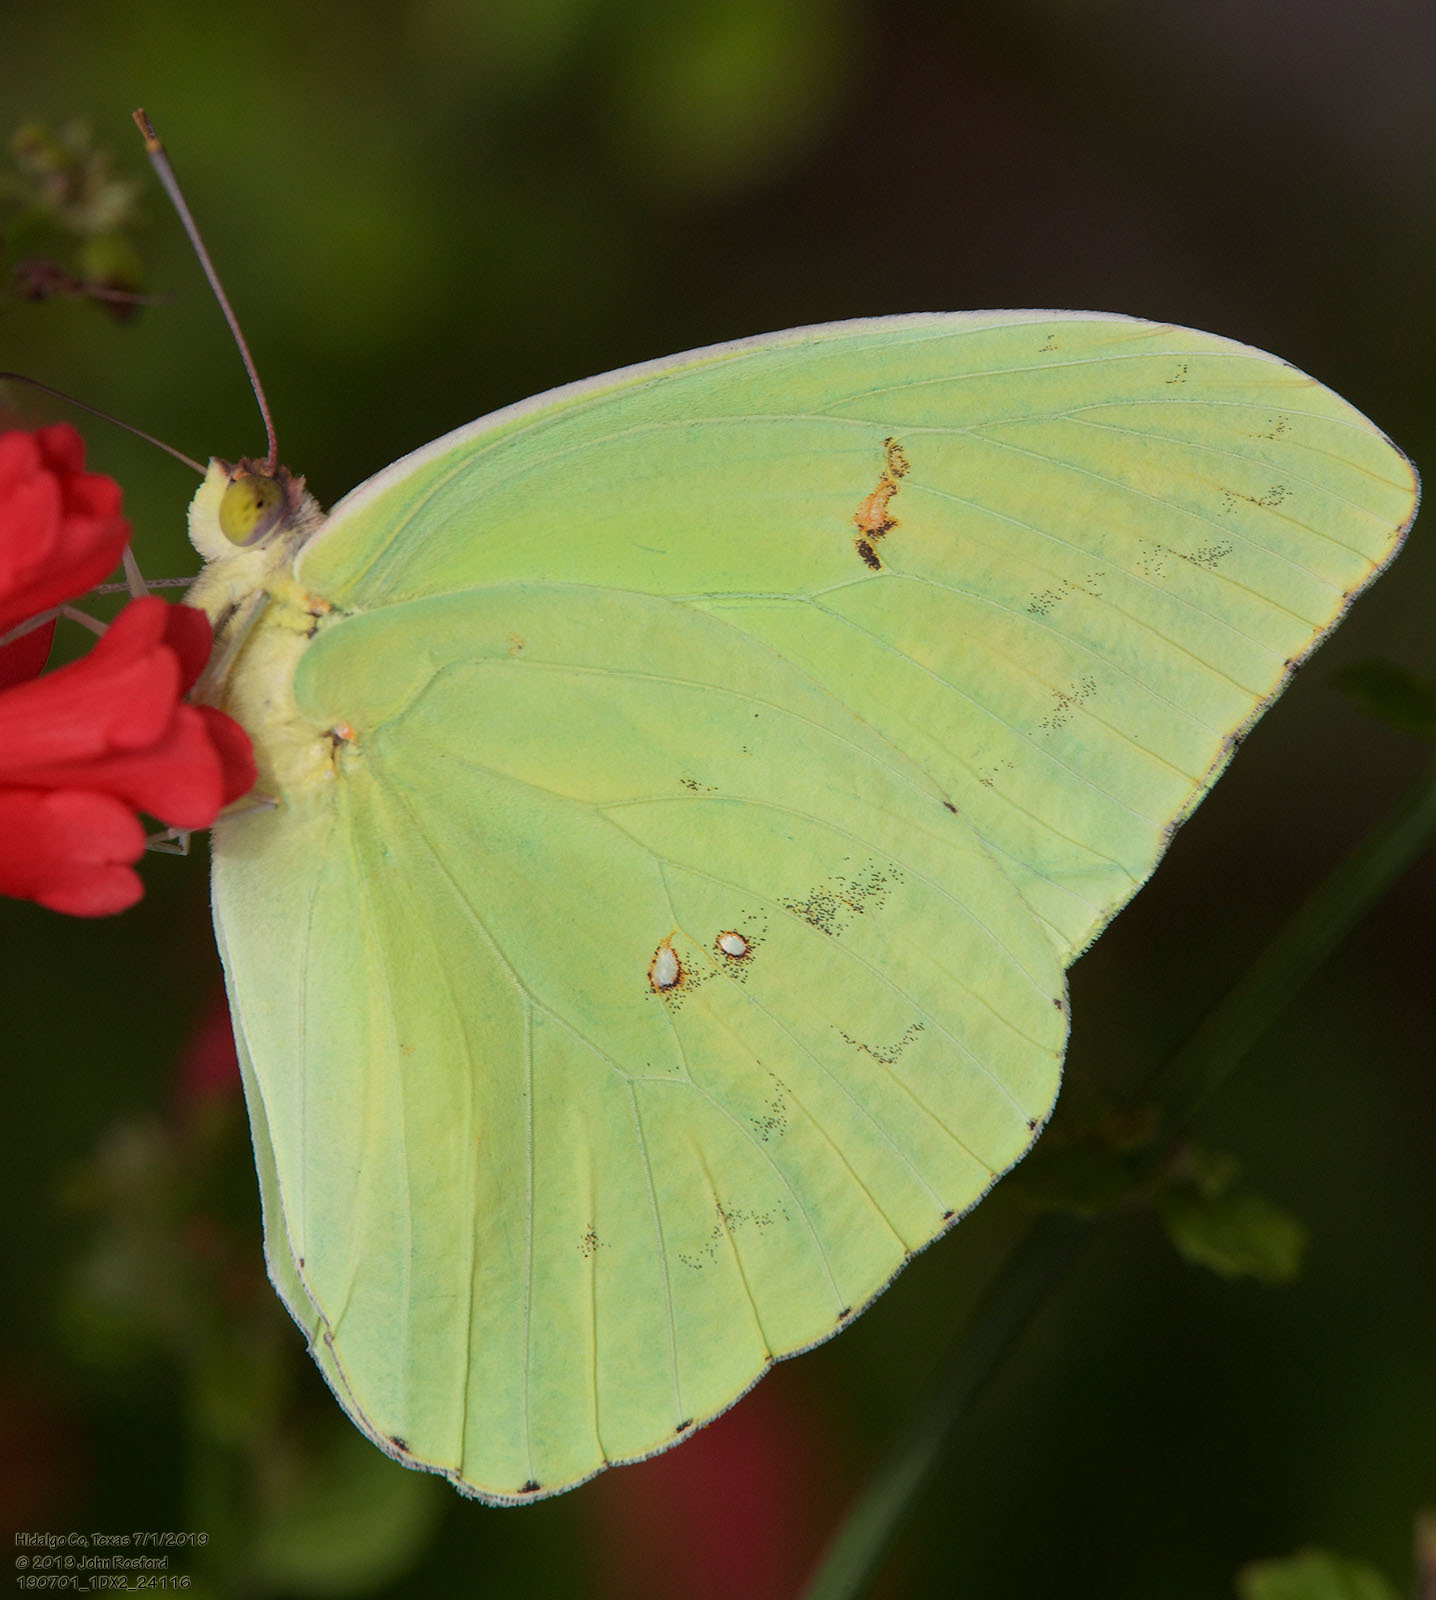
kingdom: Animalia
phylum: Arthropoda
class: Insecta
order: Lepidoptera
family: Pieridae
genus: Phoebis
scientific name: Phoebis sennae
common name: Cloudless sulphur
